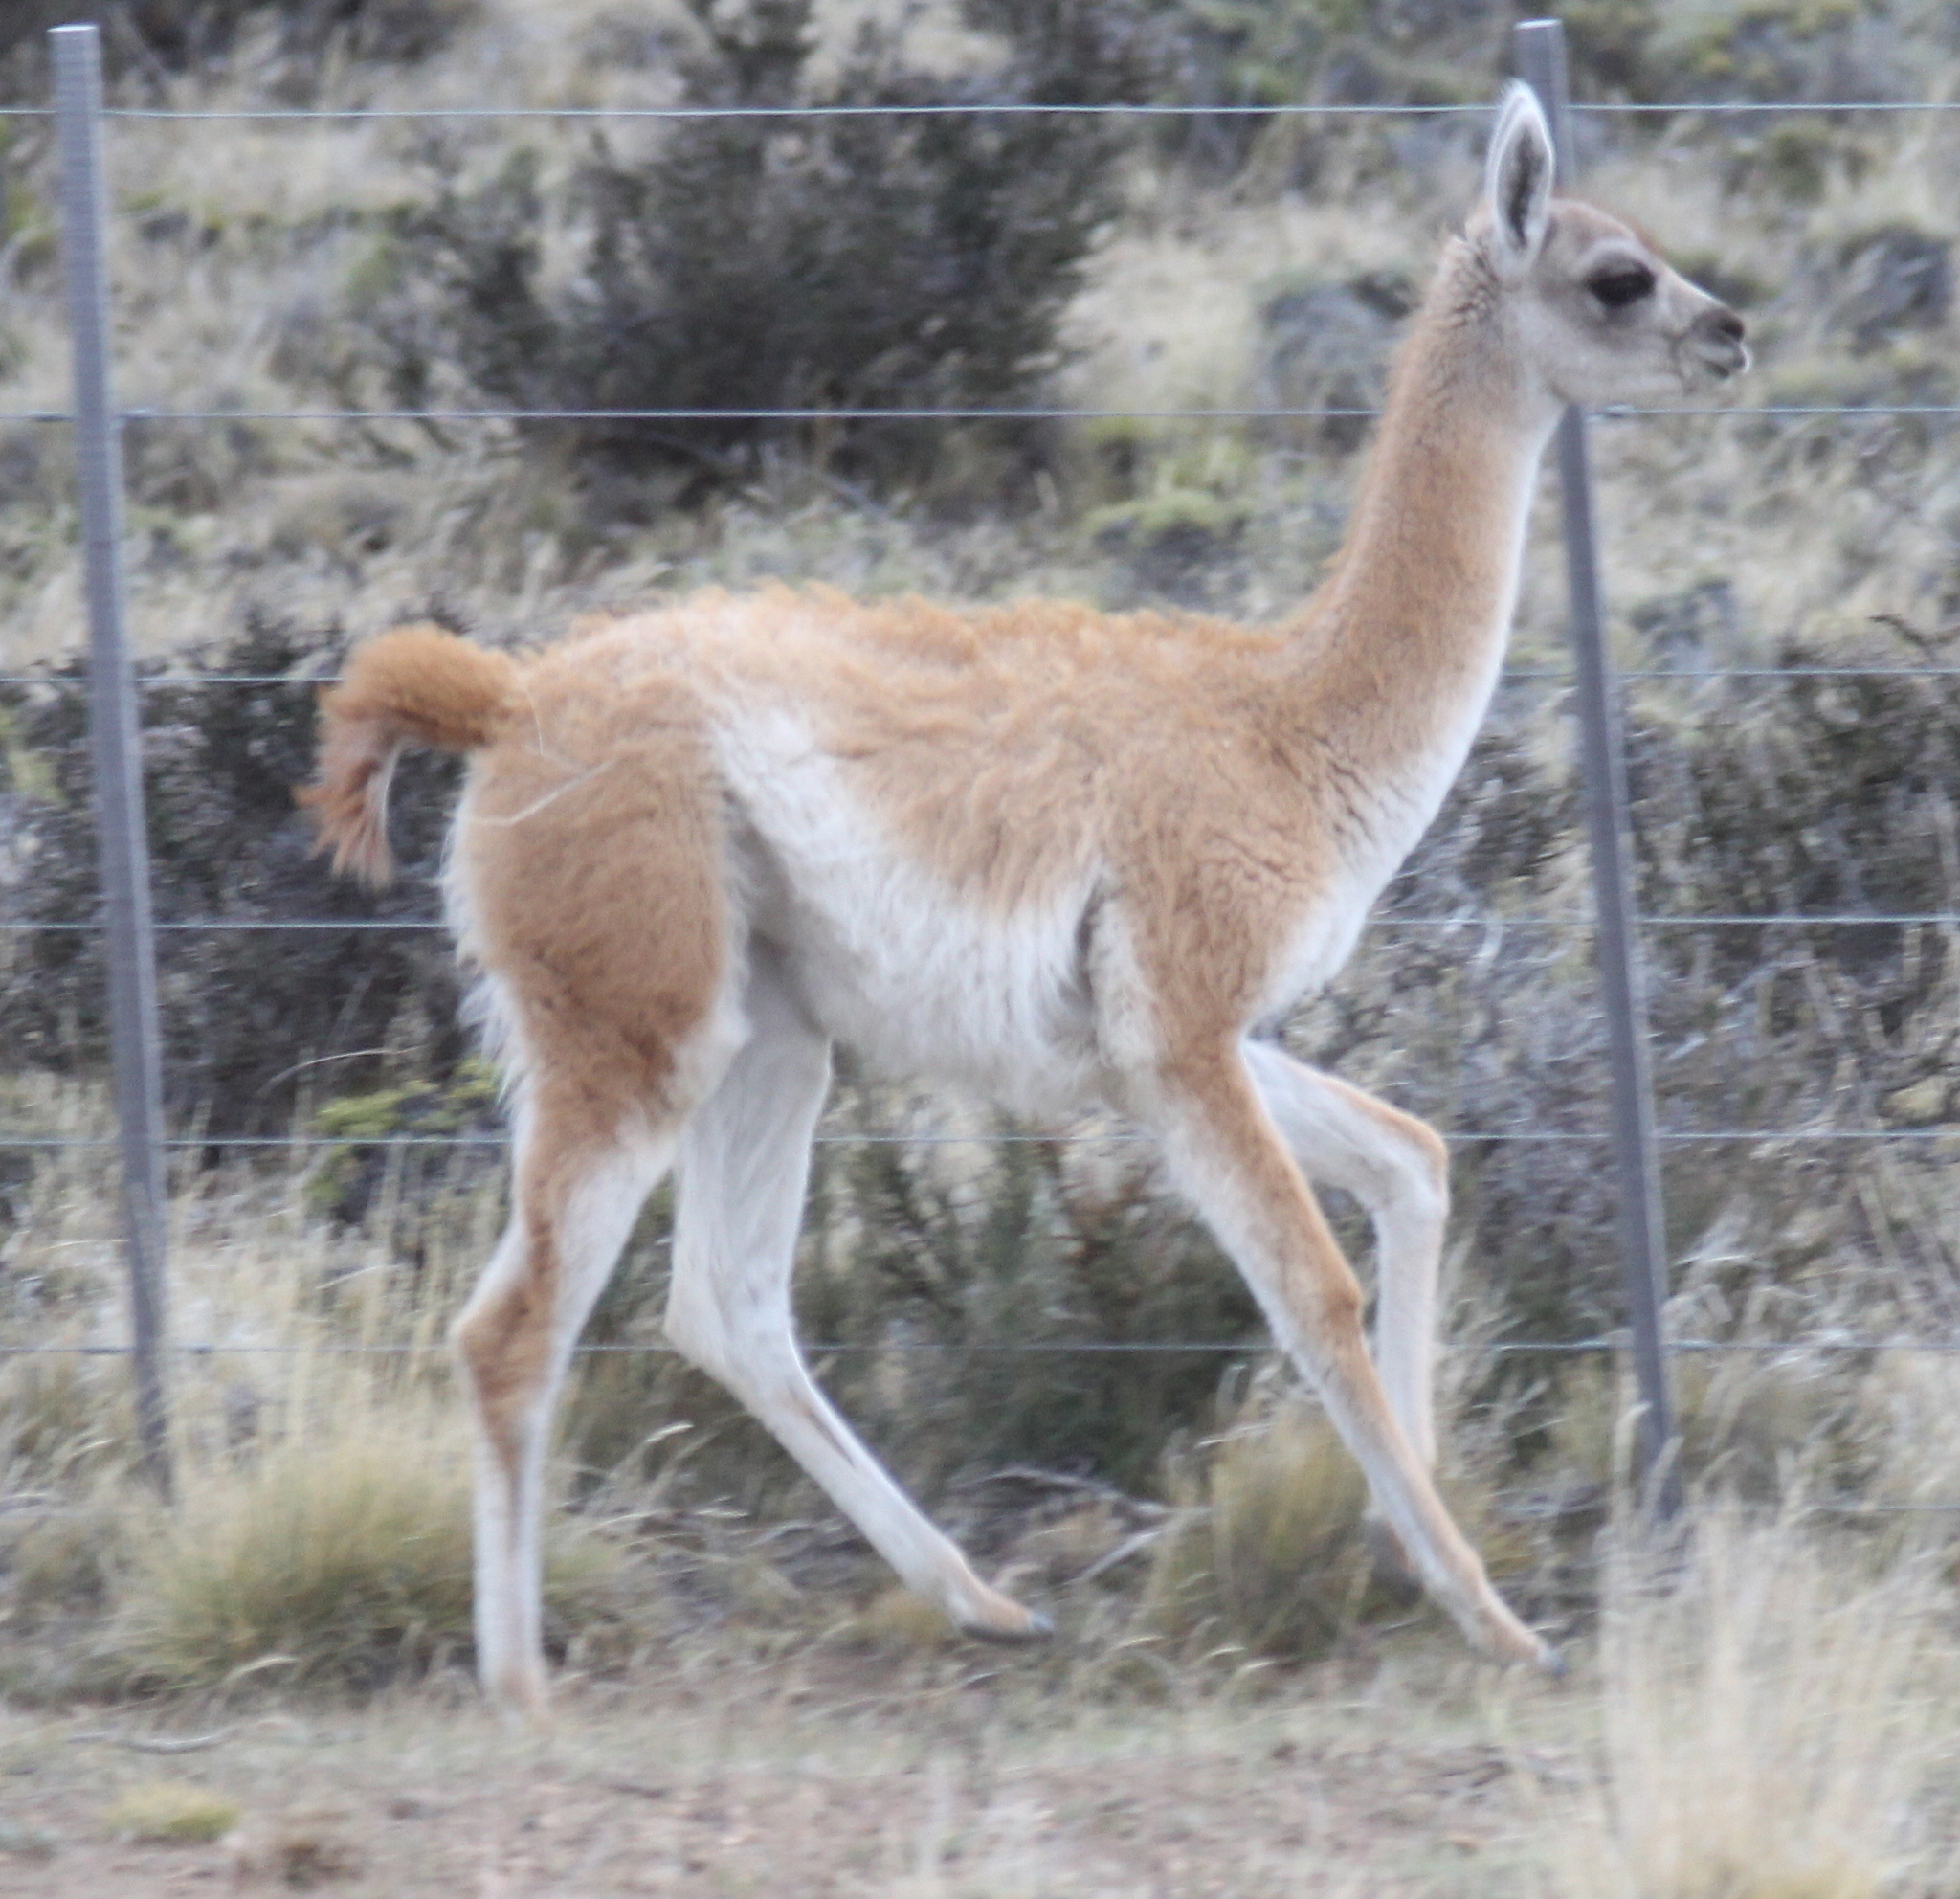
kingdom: Animalia
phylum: Chordata
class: Mammalia
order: Artiodactyla
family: Camelidae
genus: Lama
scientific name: Lama glama
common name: Llama
